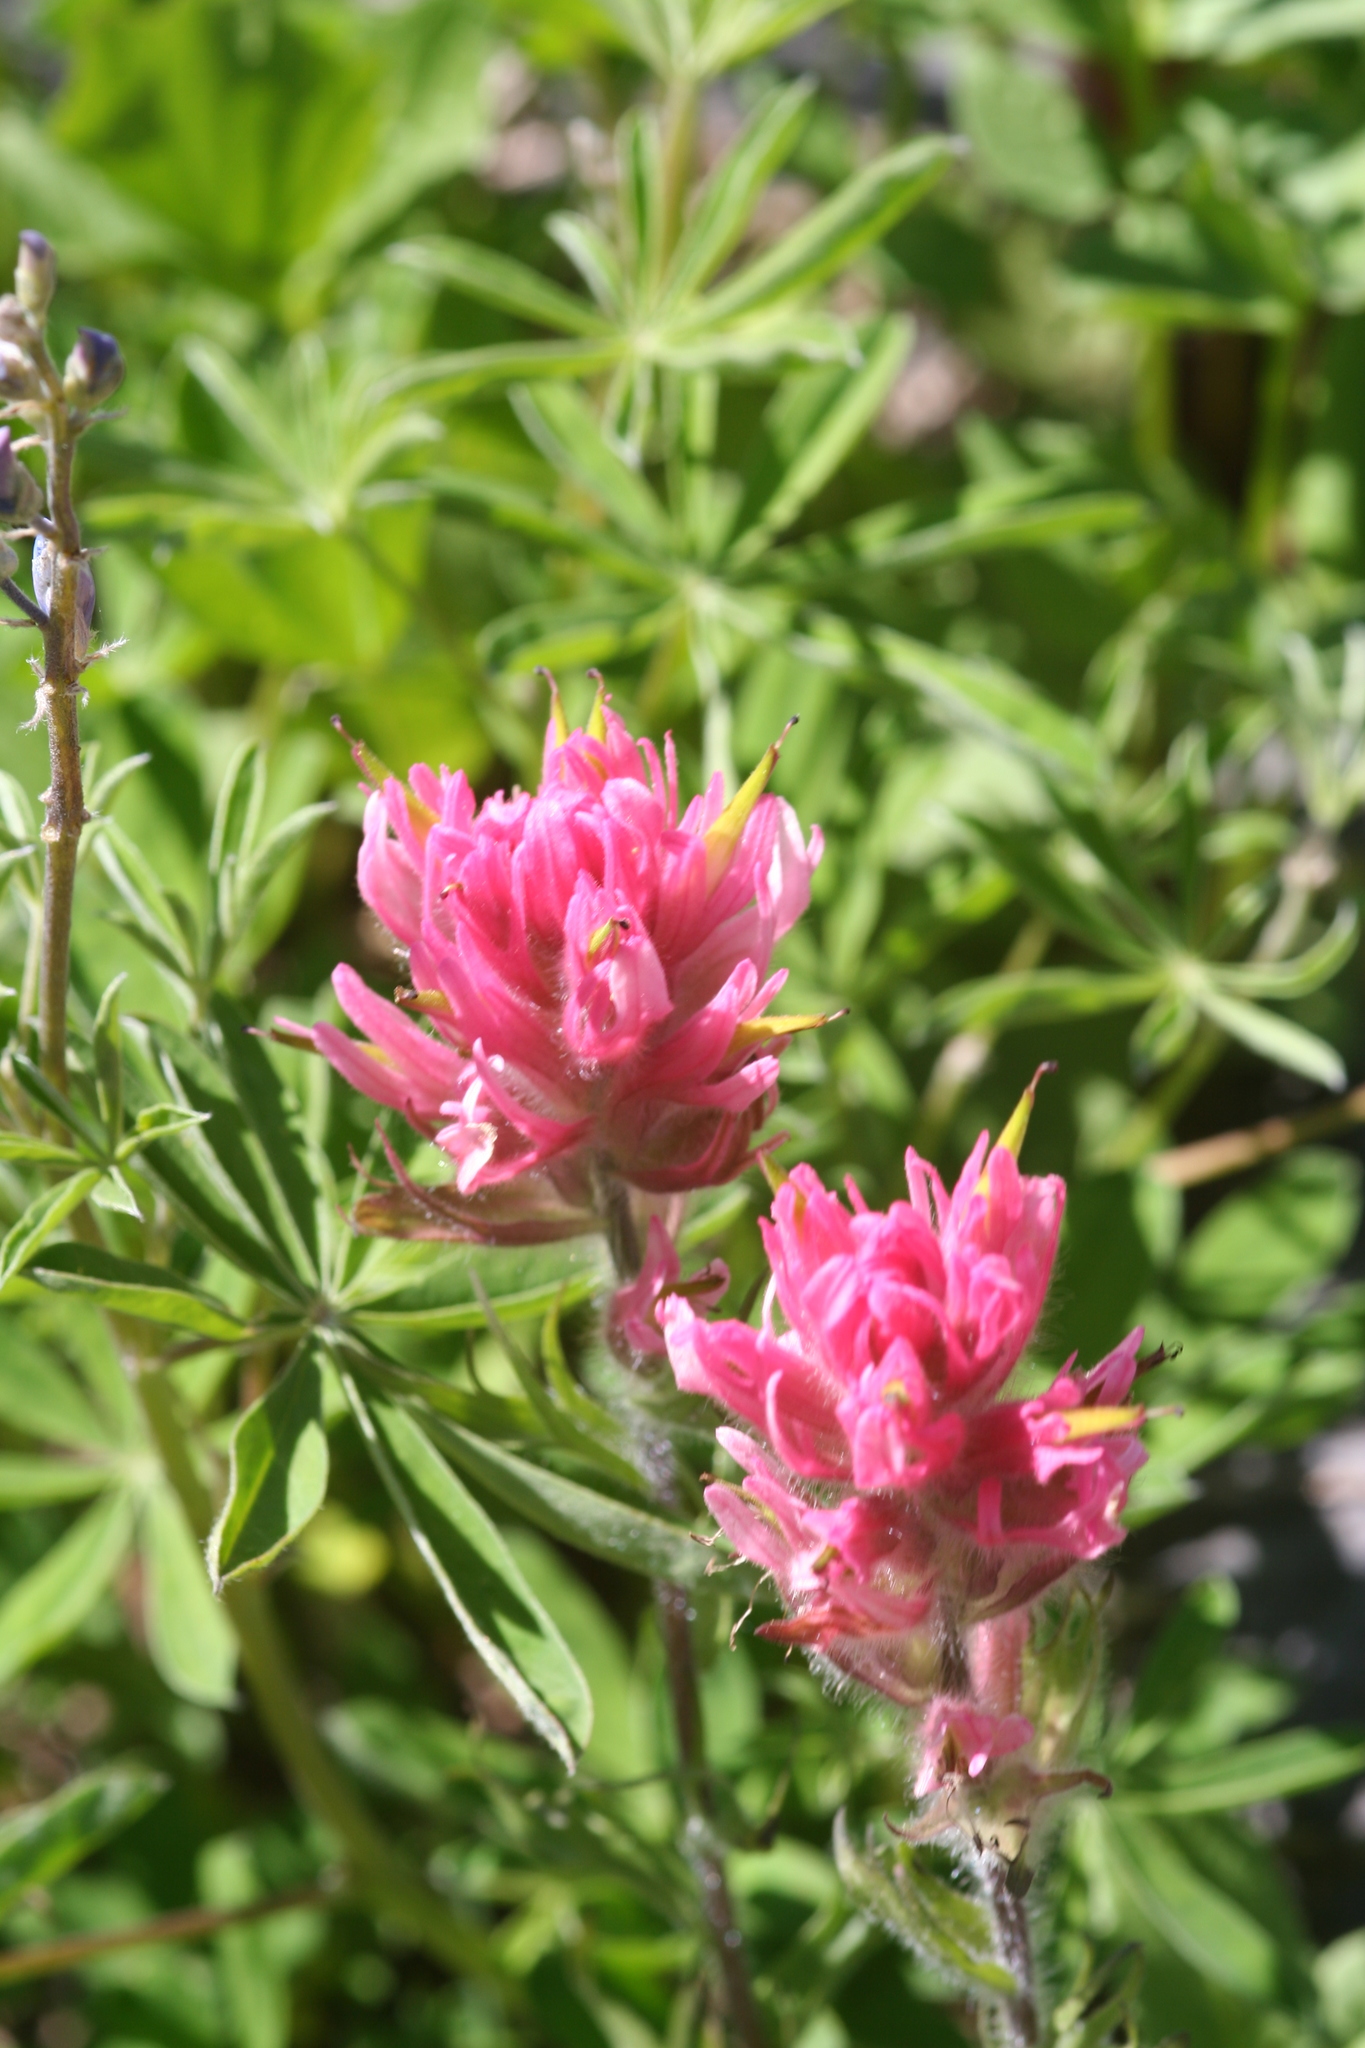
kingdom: Plantae
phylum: Tracheophyta
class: Magnoliopsida
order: Lamiales
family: Orobanchaceae
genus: Castilleja
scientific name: Castilleja parviflora
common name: Mountain paintbrush
